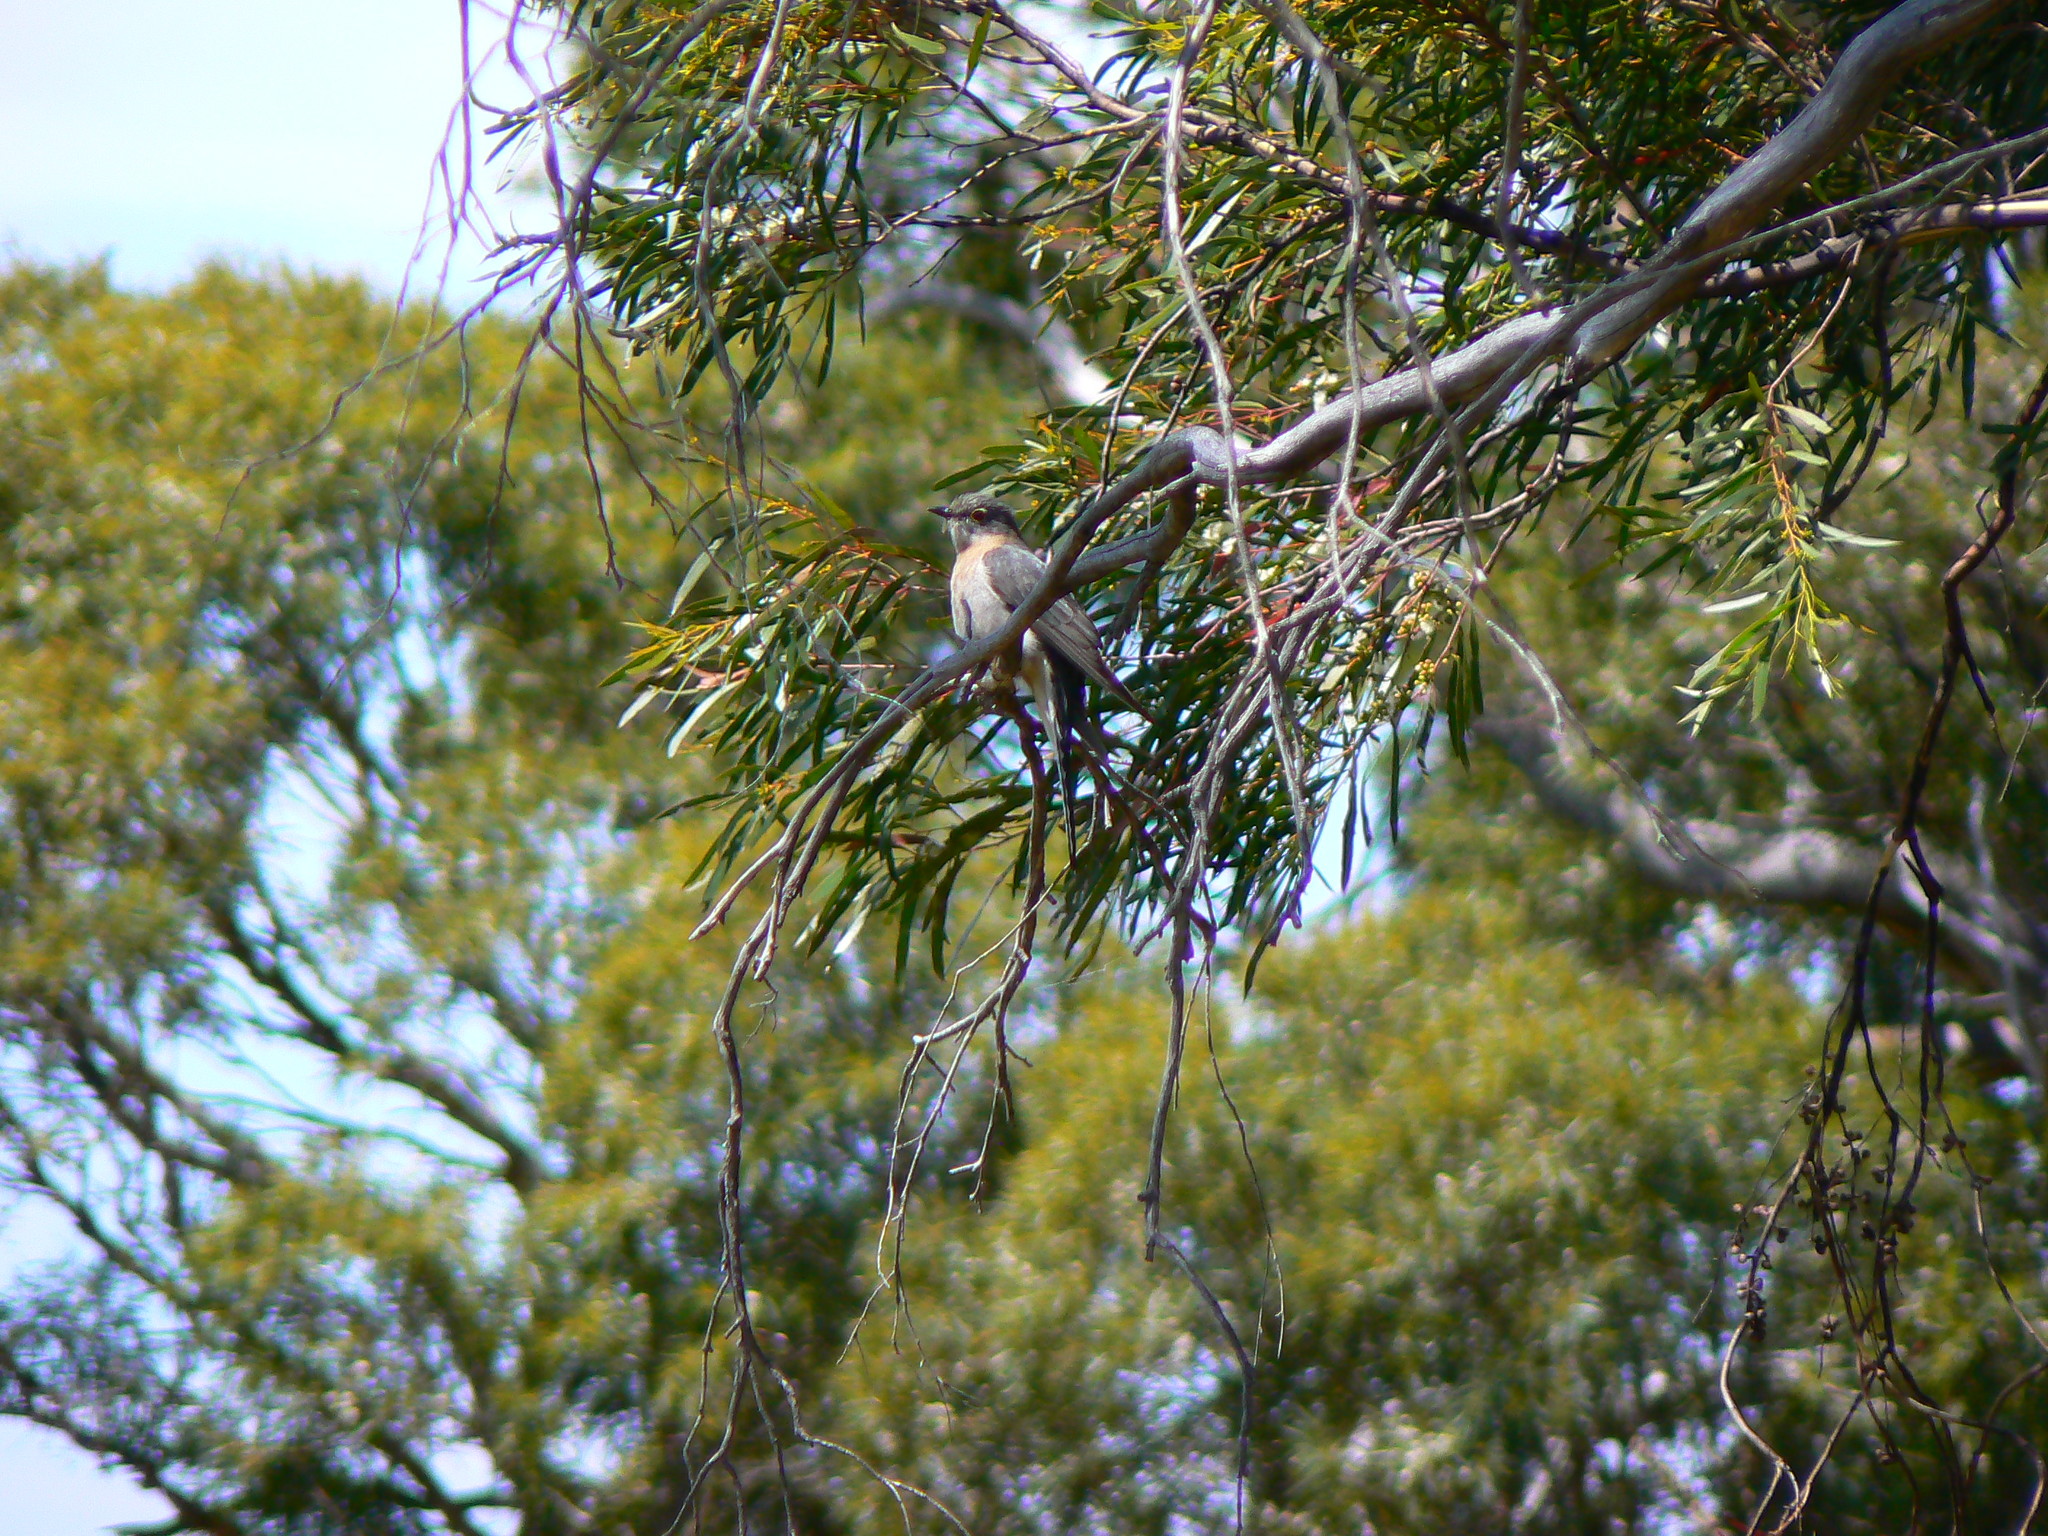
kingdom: Animalia
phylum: Chordata
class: Aves
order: Cuculiformes
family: Cuculidae
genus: Cacomantis
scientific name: Cacomantis flabelliformis
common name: Fan-tailed cuckoo
